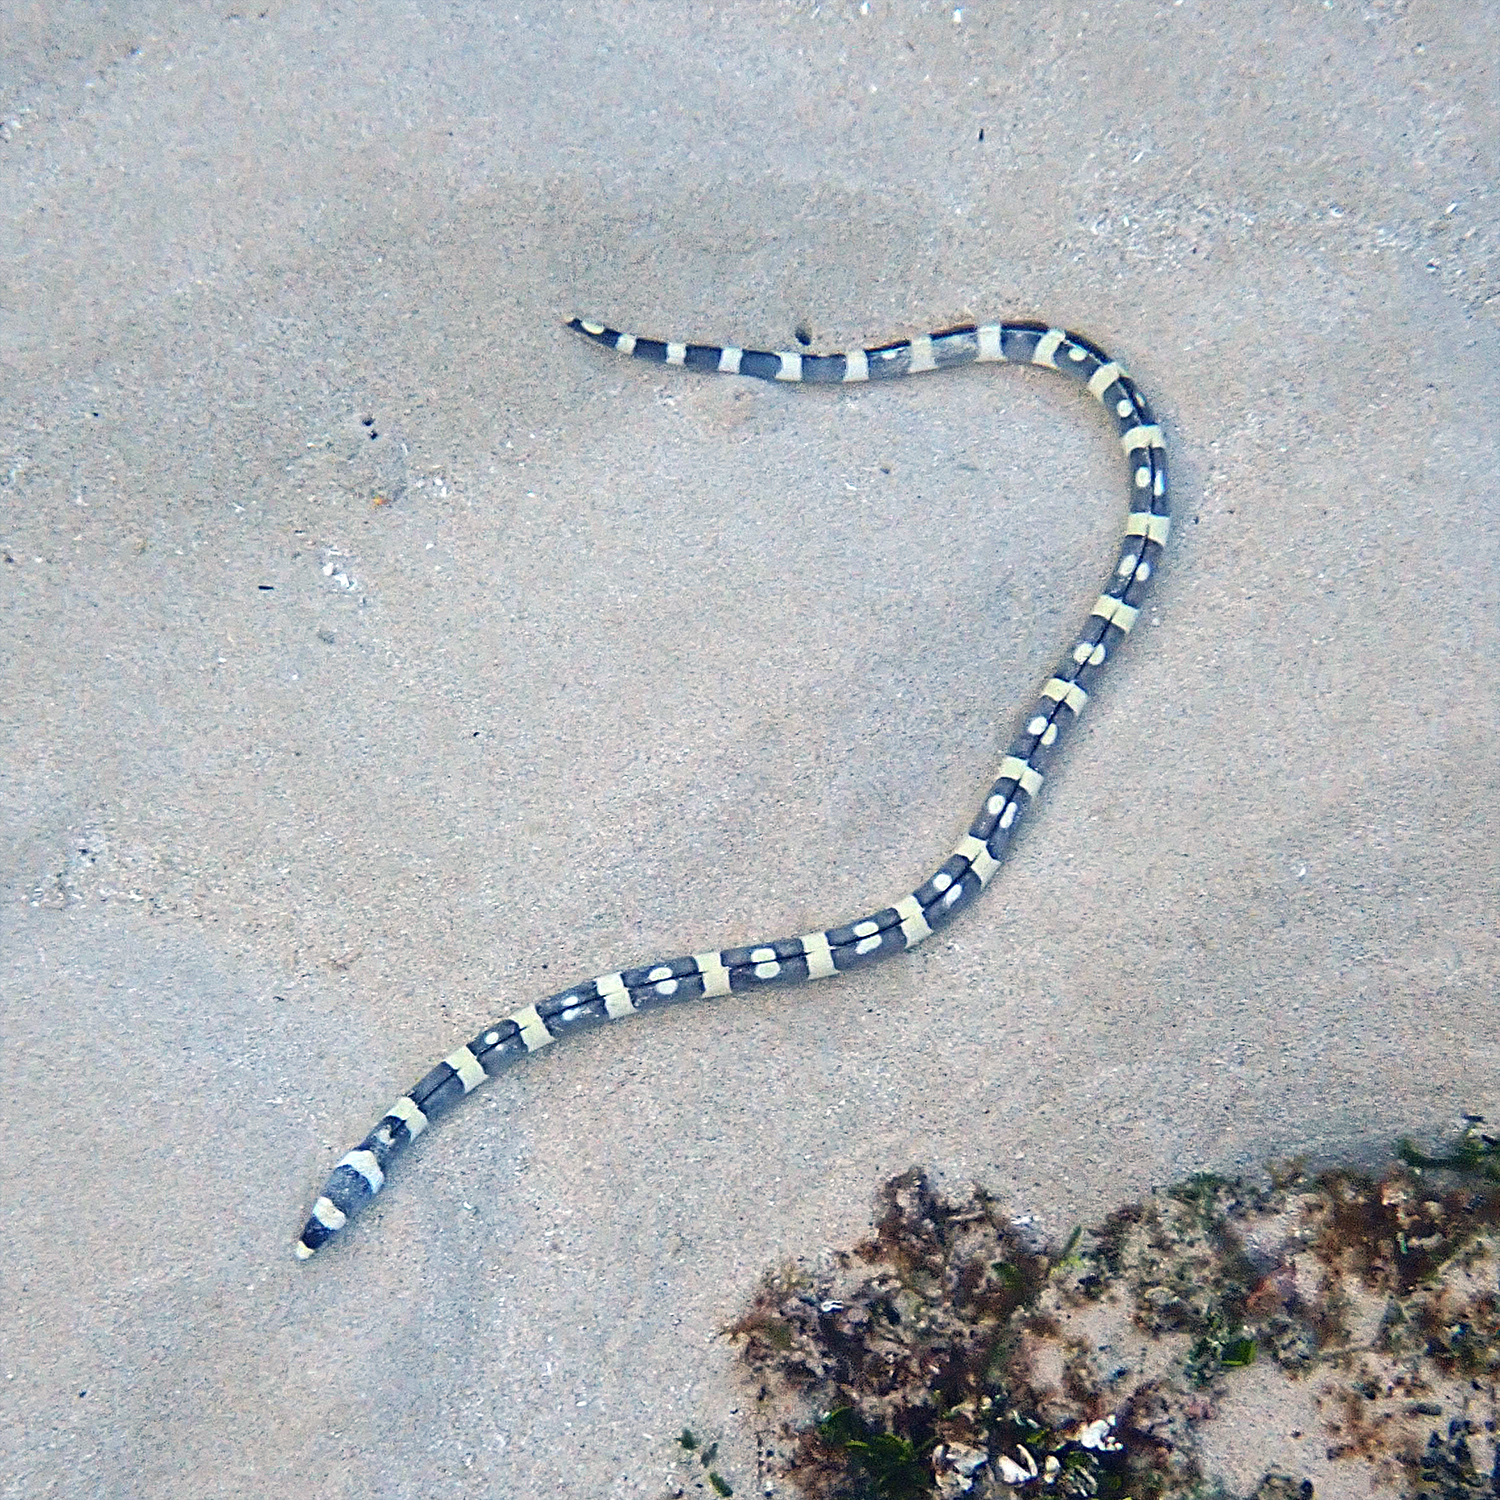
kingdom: Animalia
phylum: Chordata
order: Anguilliformes
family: Ophichthidae
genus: Leiuranus
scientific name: Leiuranus versicolor
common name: Convict snake eel
